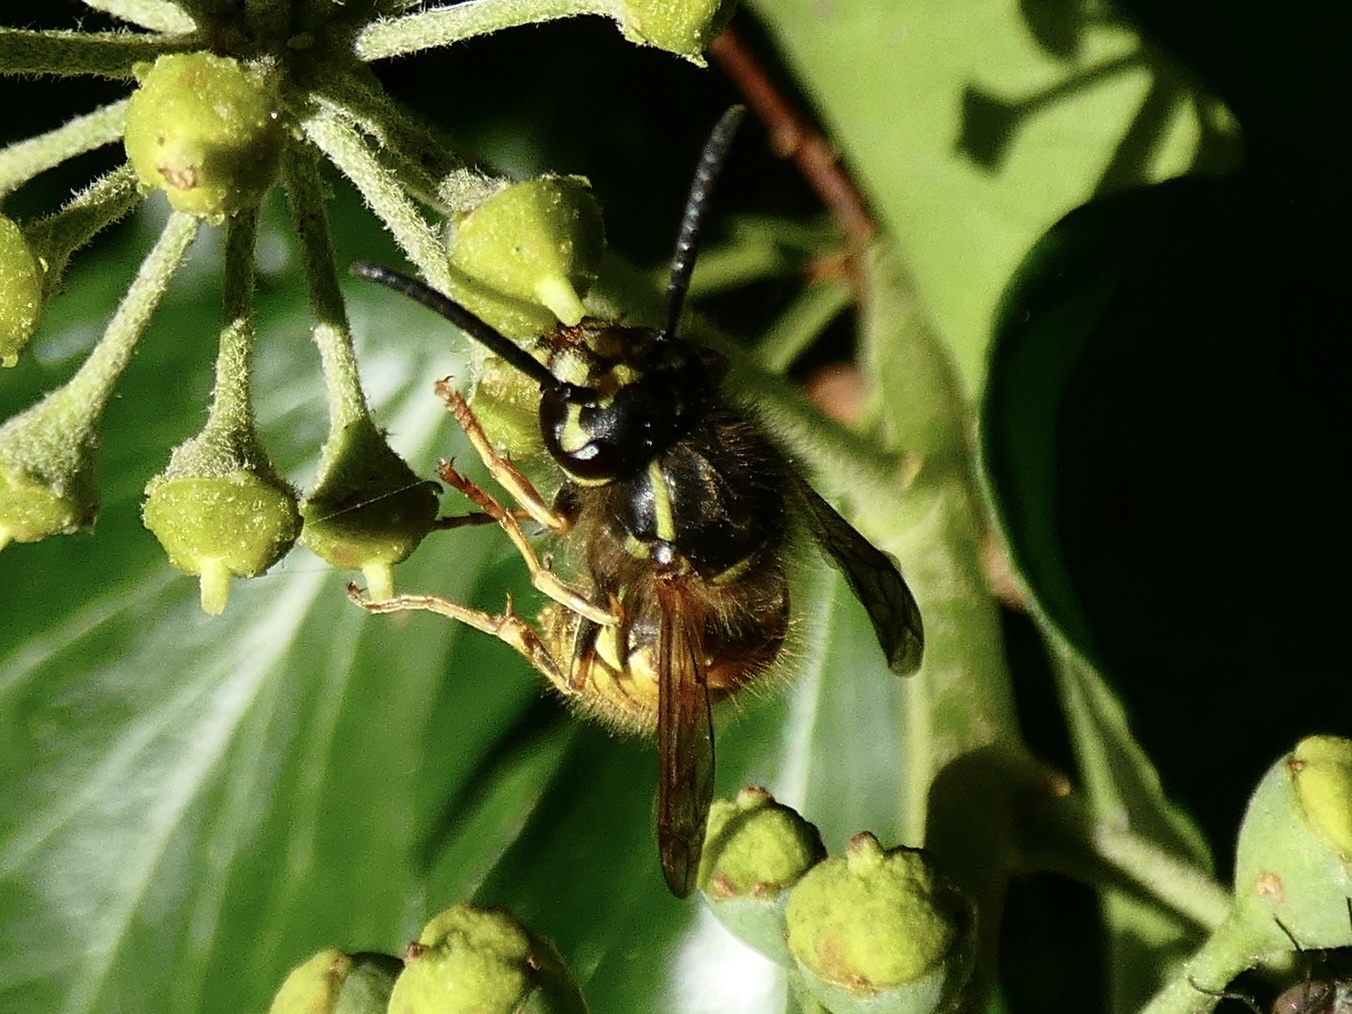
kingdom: Animalia
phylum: Arthropoda
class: Insecta
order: Hymenoptera
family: Vespidae
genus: Vespula
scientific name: Vespula vulgaris
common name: Common wasp
